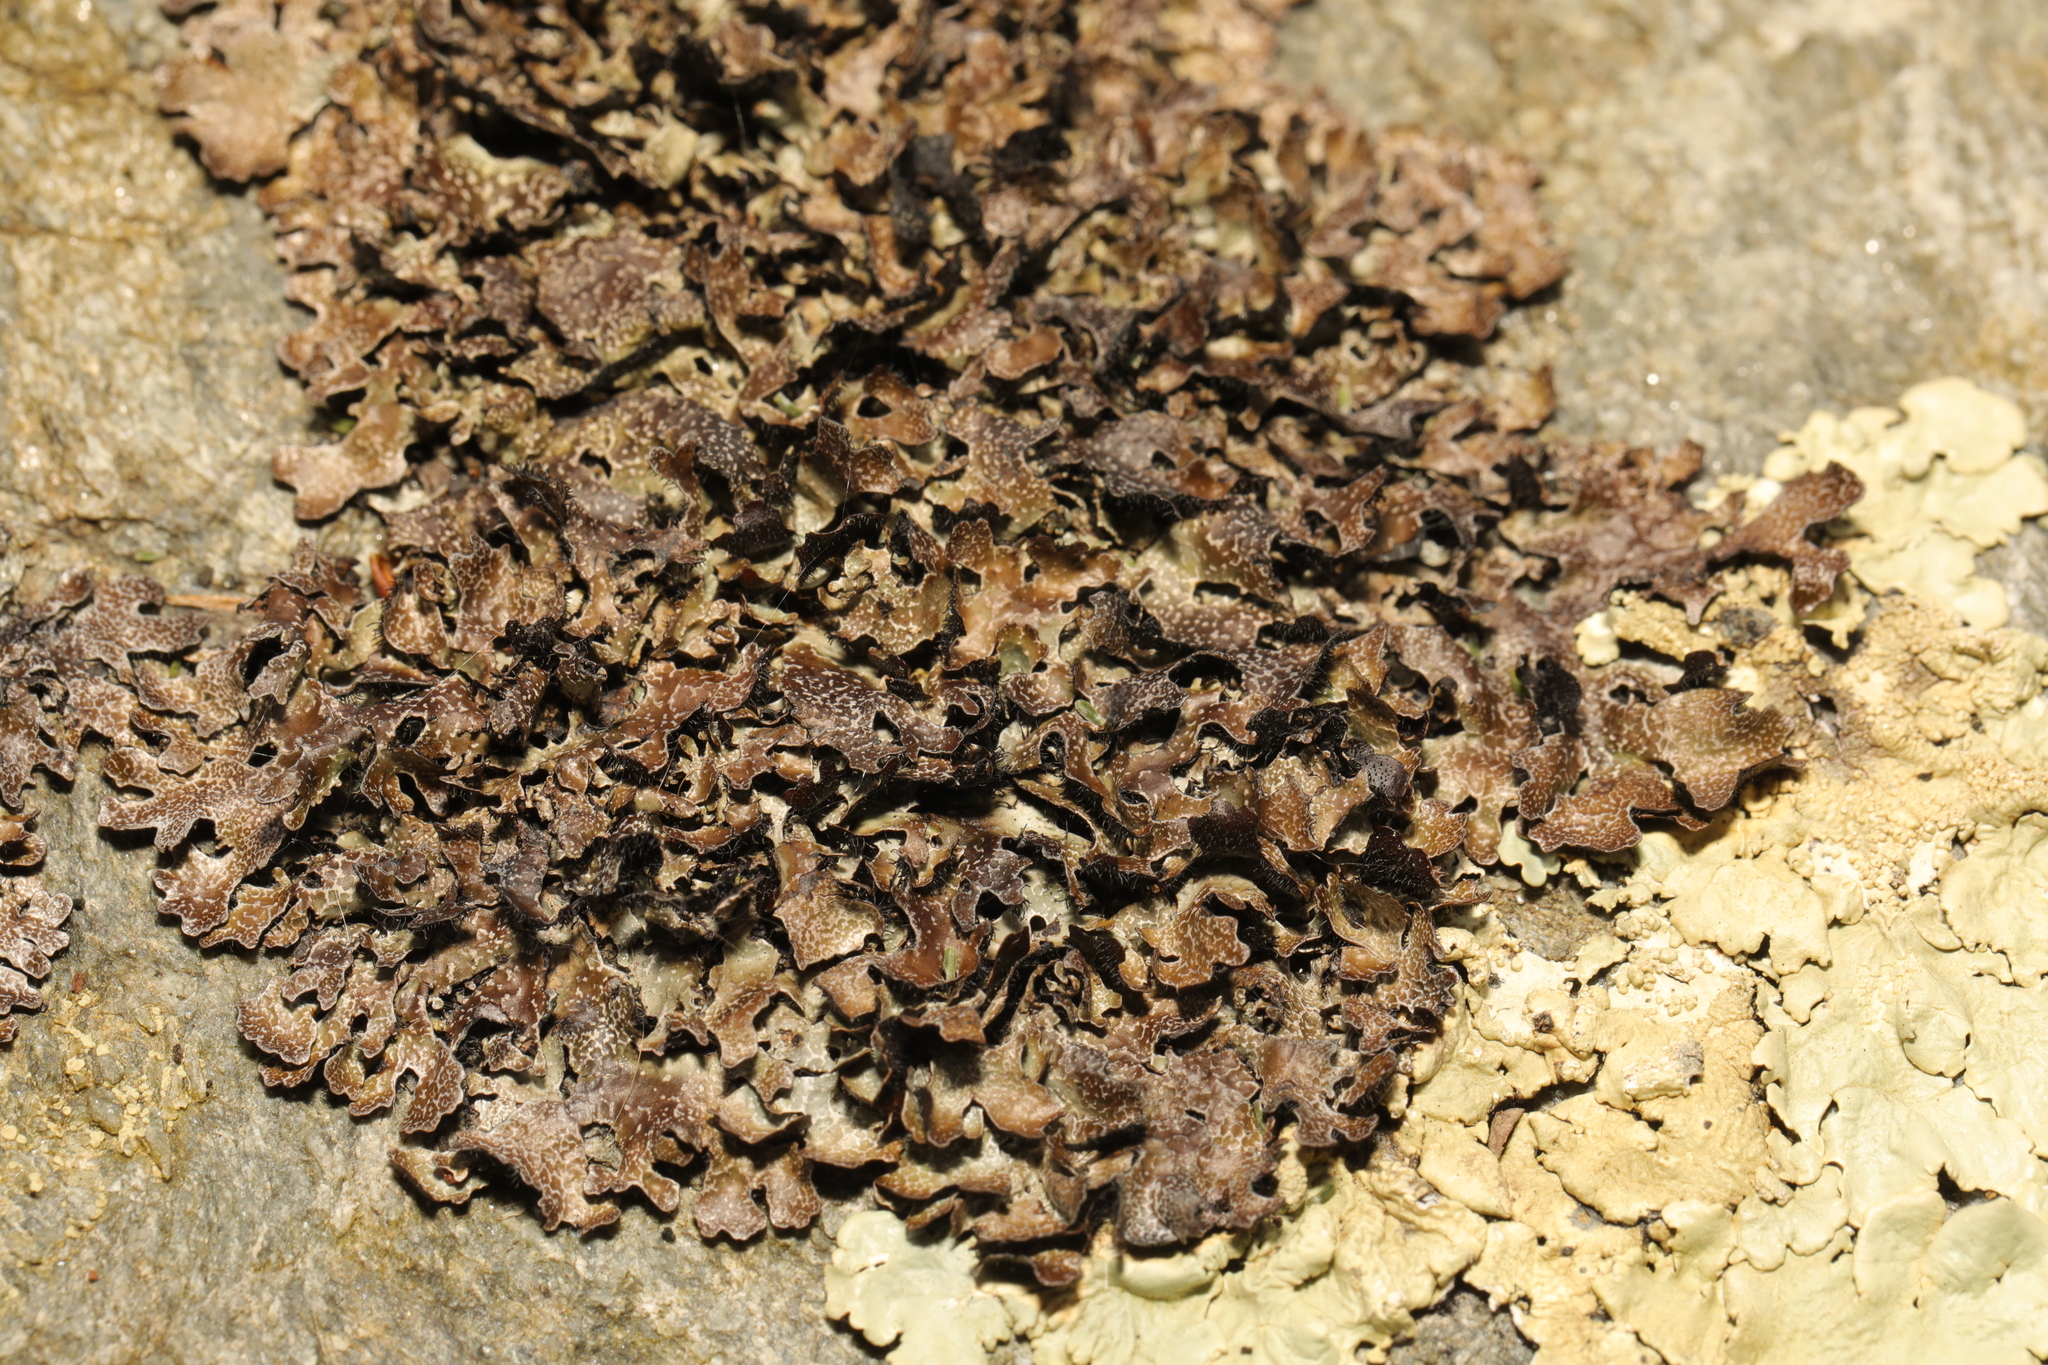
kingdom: Fungi
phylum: Ascomycota
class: Lecanoromycetes
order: Lecanorales
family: Parmeliaceae
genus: Parmelia
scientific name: Parmelia omphalodes
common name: Smoky crottle
